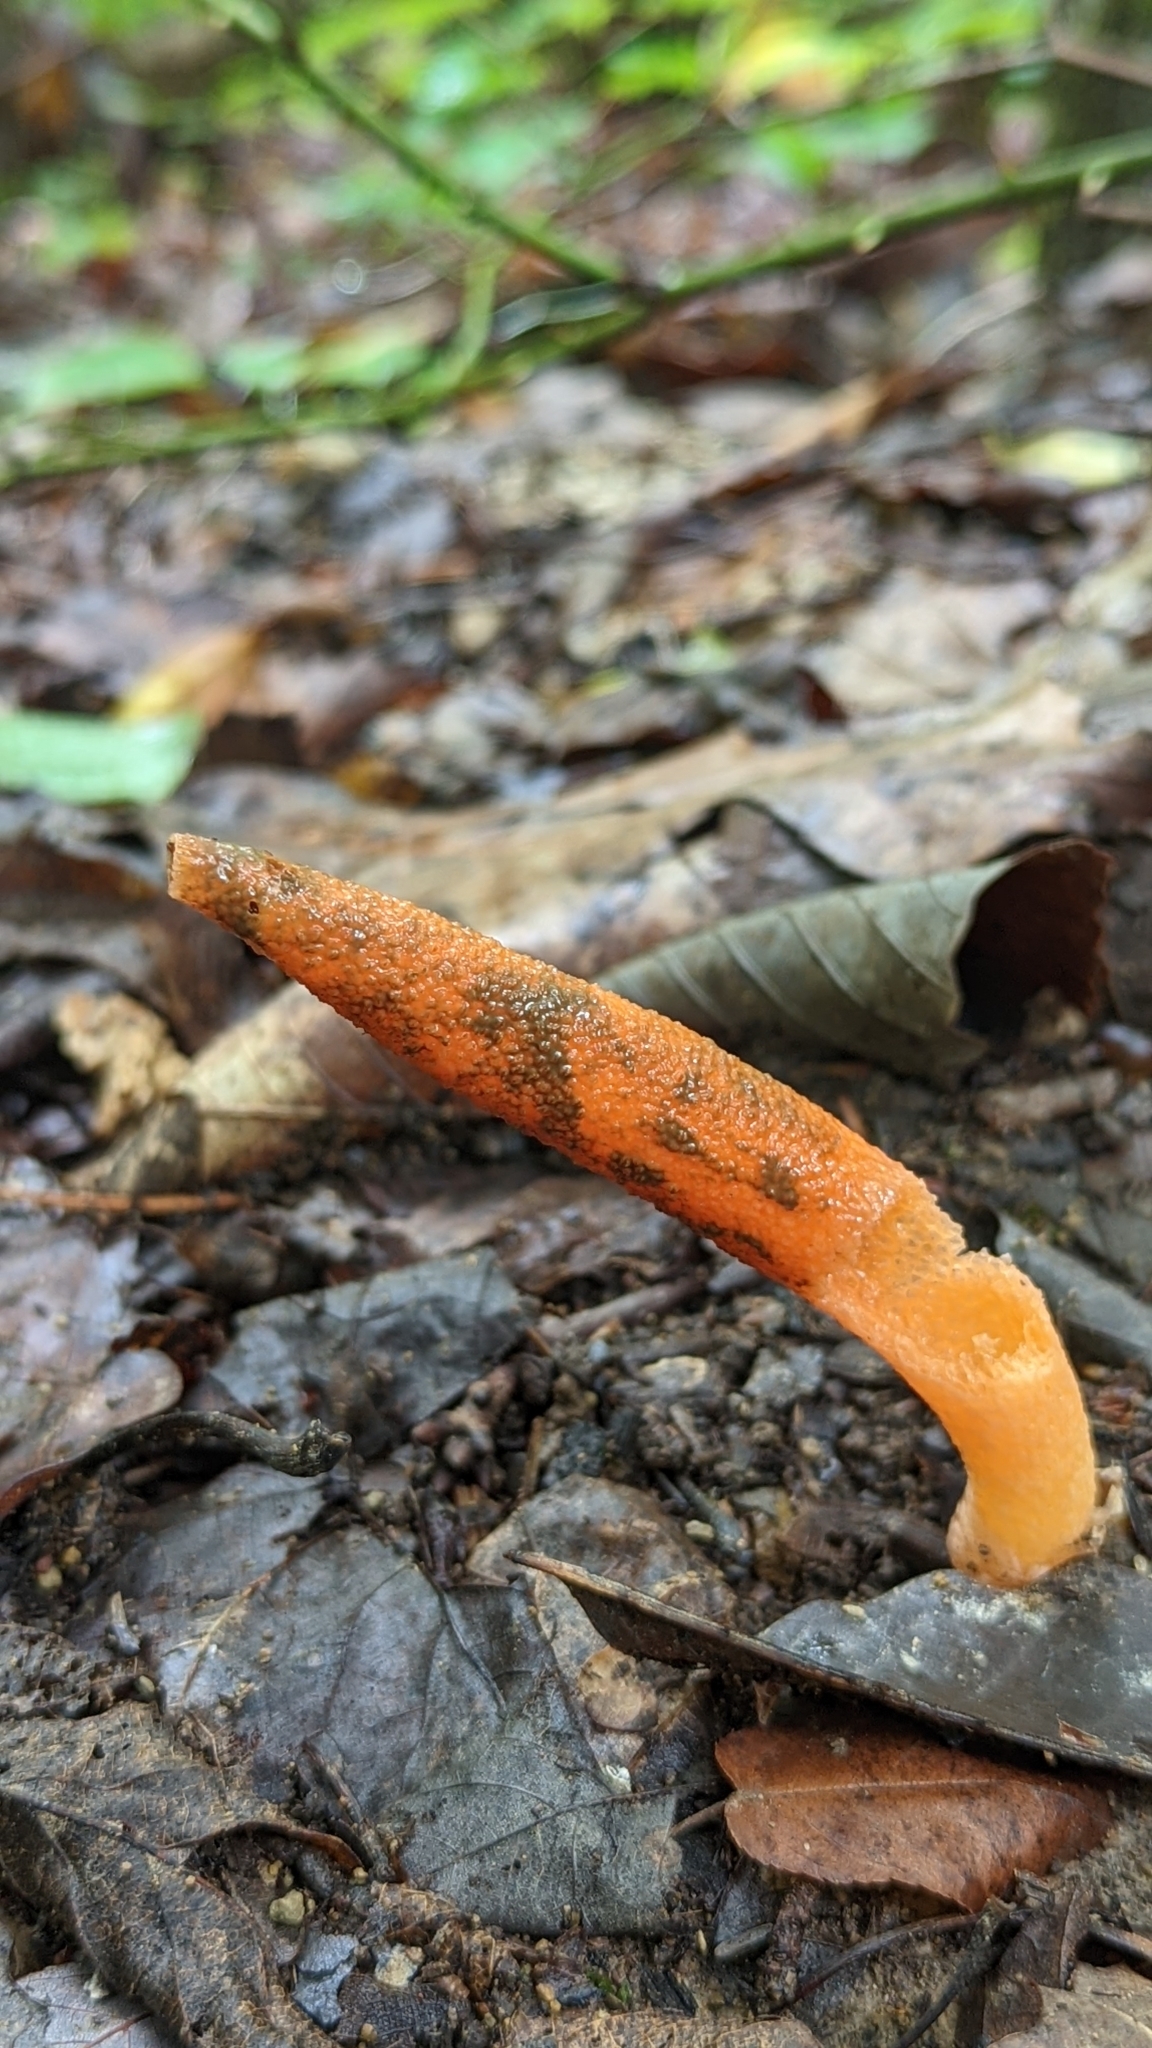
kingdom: Fungi
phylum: Basidiomycota
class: Agaricomycetes
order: Phallales
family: Phallaceae
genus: Mutinus
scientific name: Mutinus elegans
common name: Devil's dipstick
